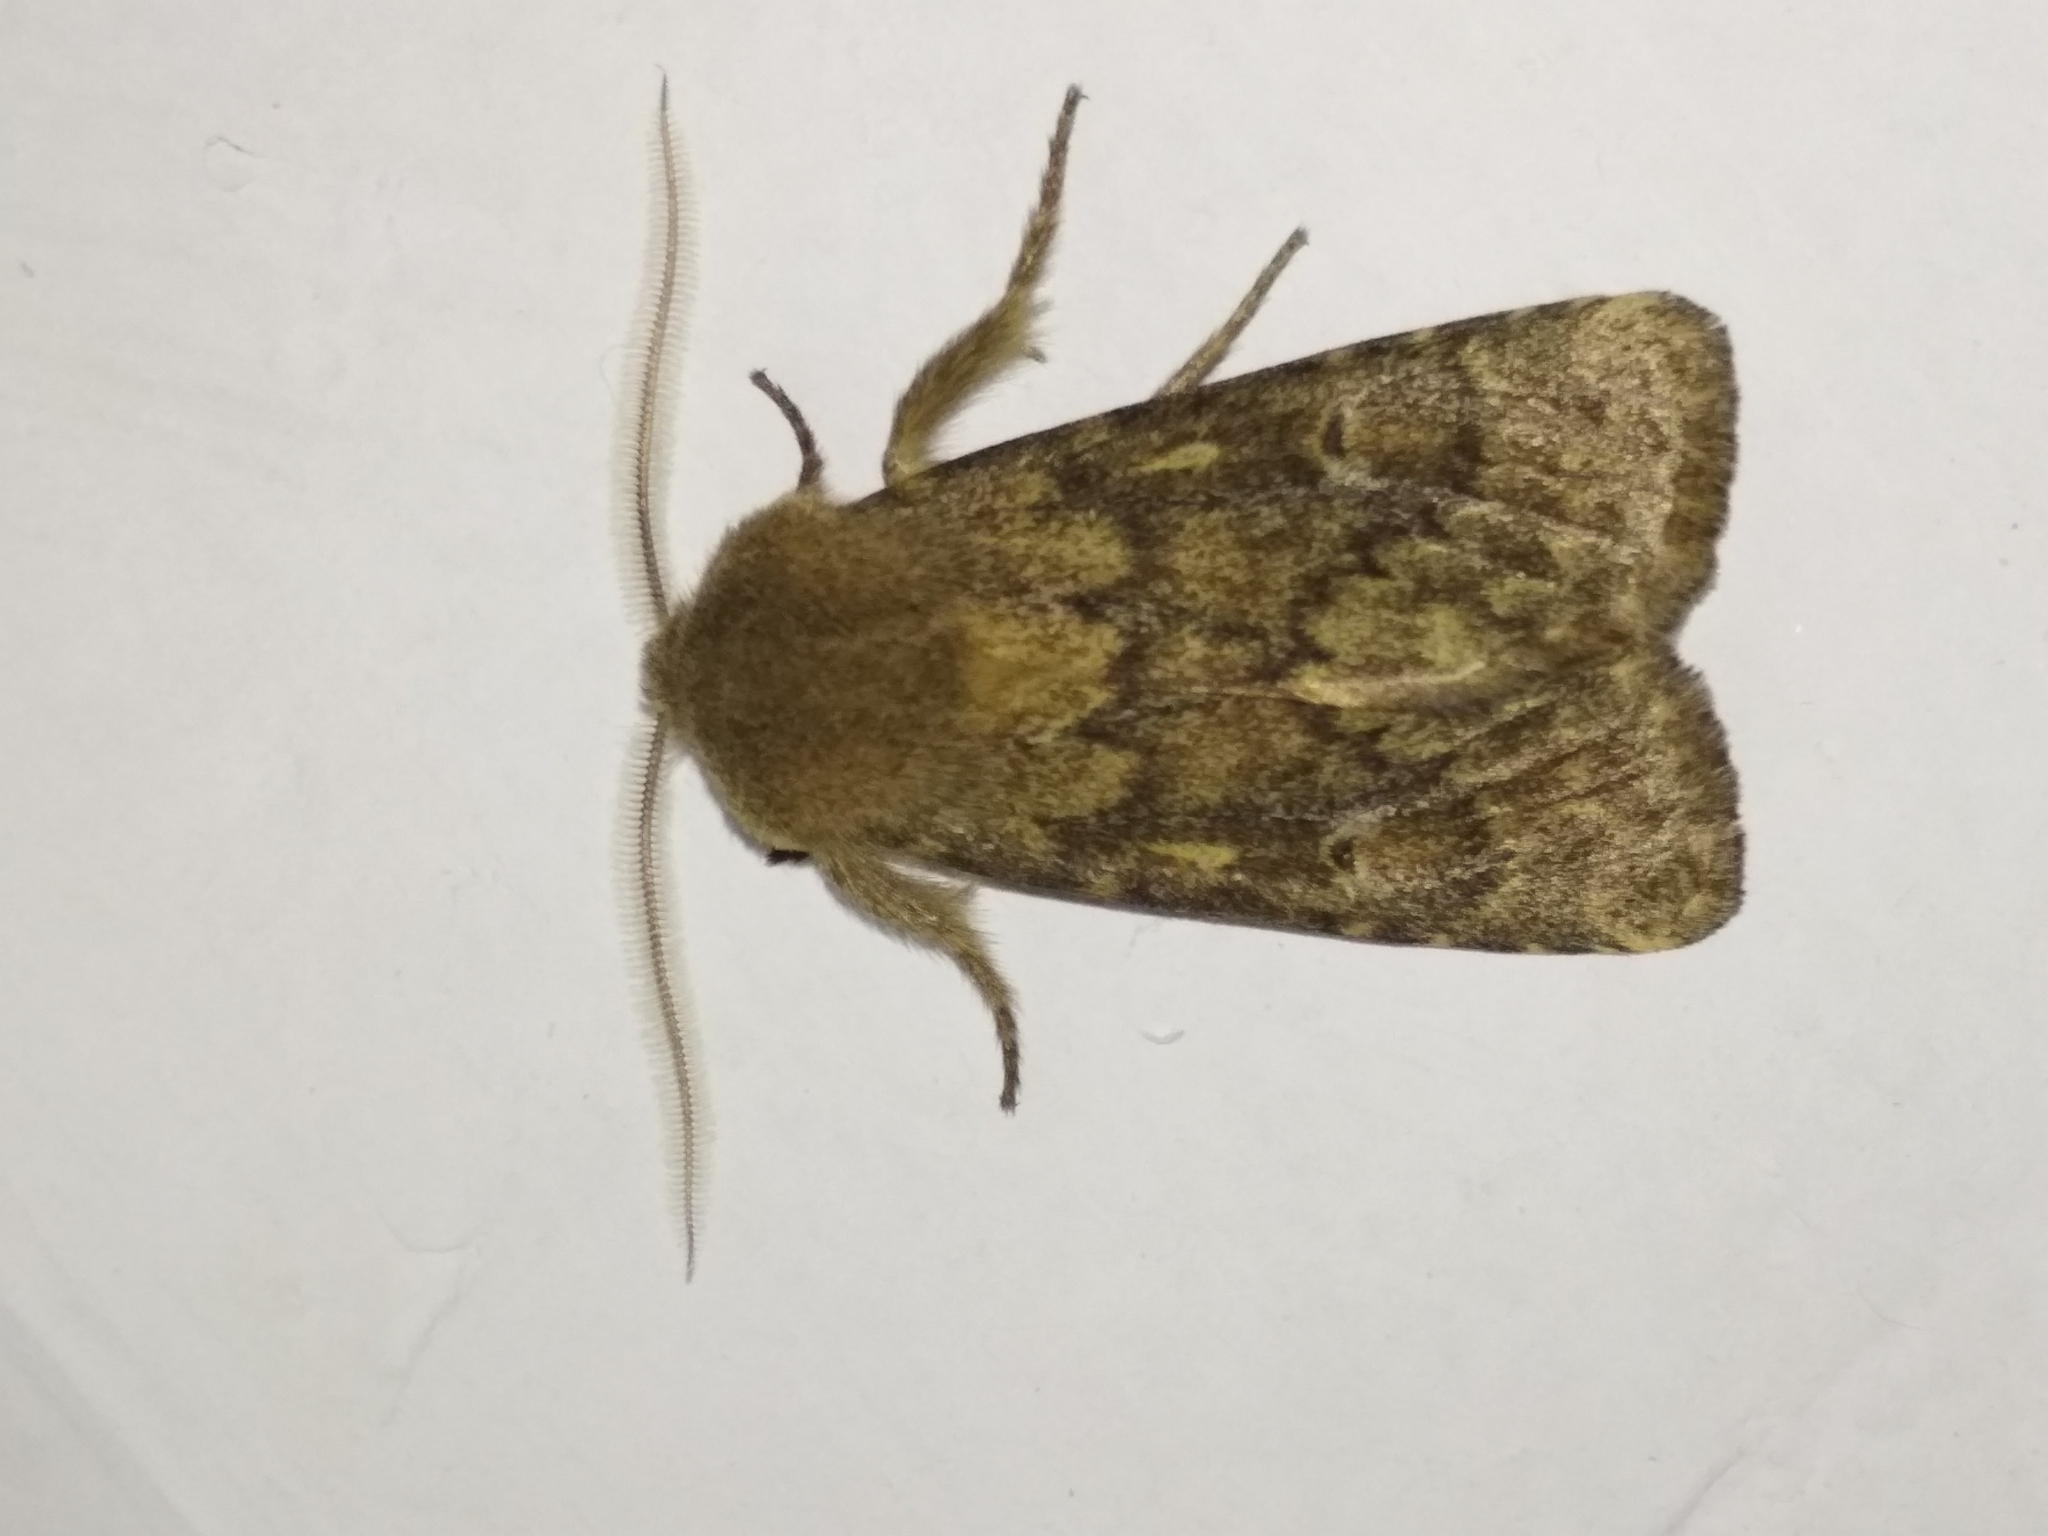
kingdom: Animalia
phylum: Arthropoda
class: Insecta
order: Lepidoptera
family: Noctuidae
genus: Dasypolia
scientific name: Dasypolia templi
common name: Brindled ochre
